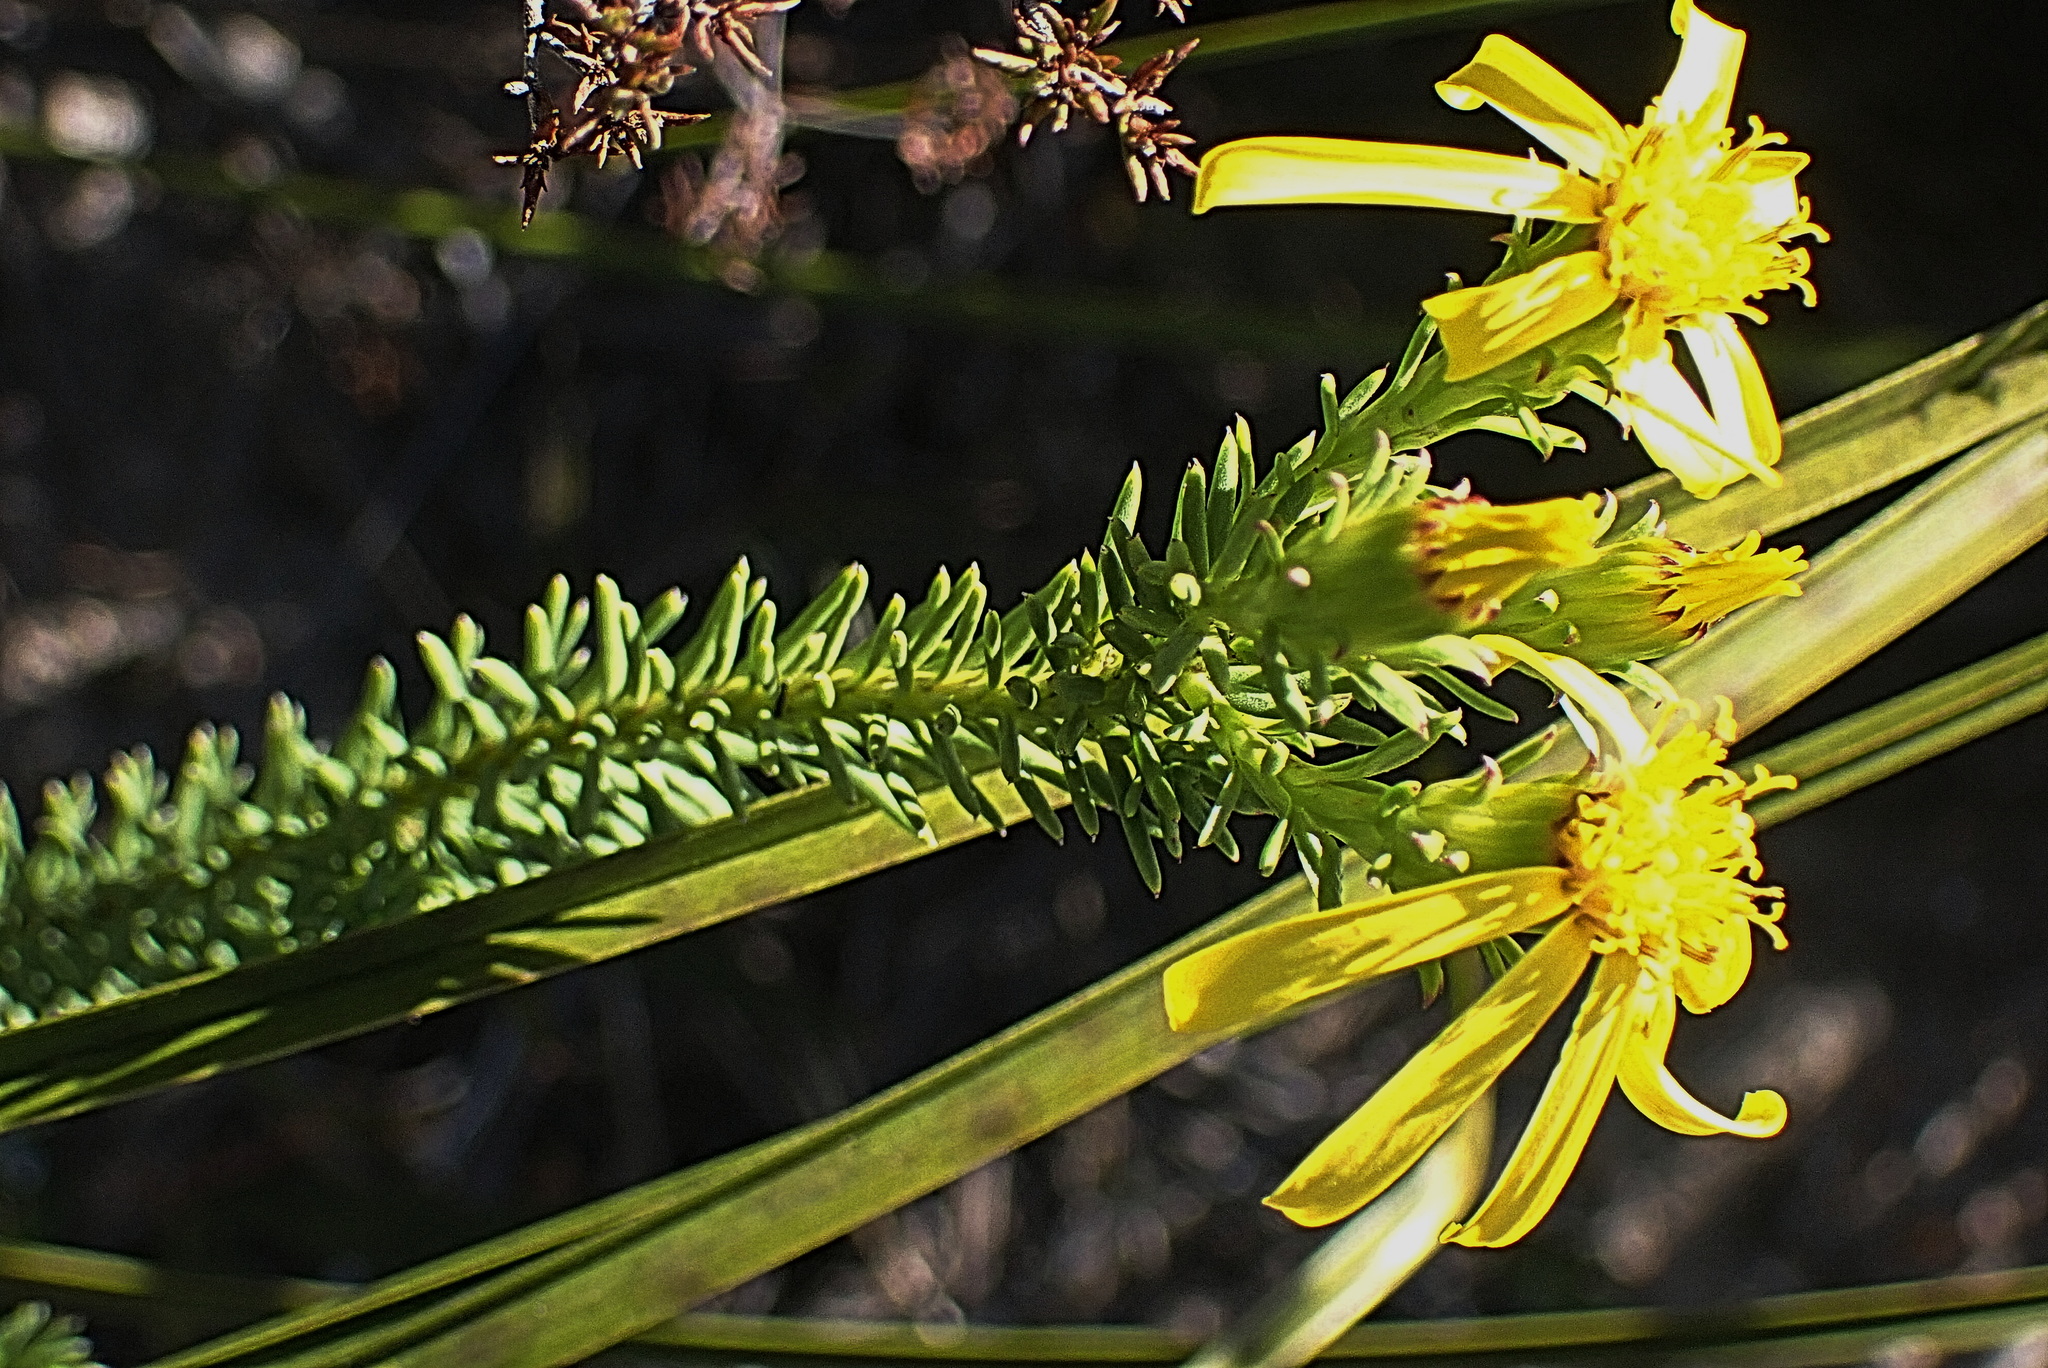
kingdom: Plantae
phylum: Tracheophyta
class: Magnoliopsida
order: Asterales
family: Asteraceae
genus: Senecio
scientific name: Senecio pinifolius
